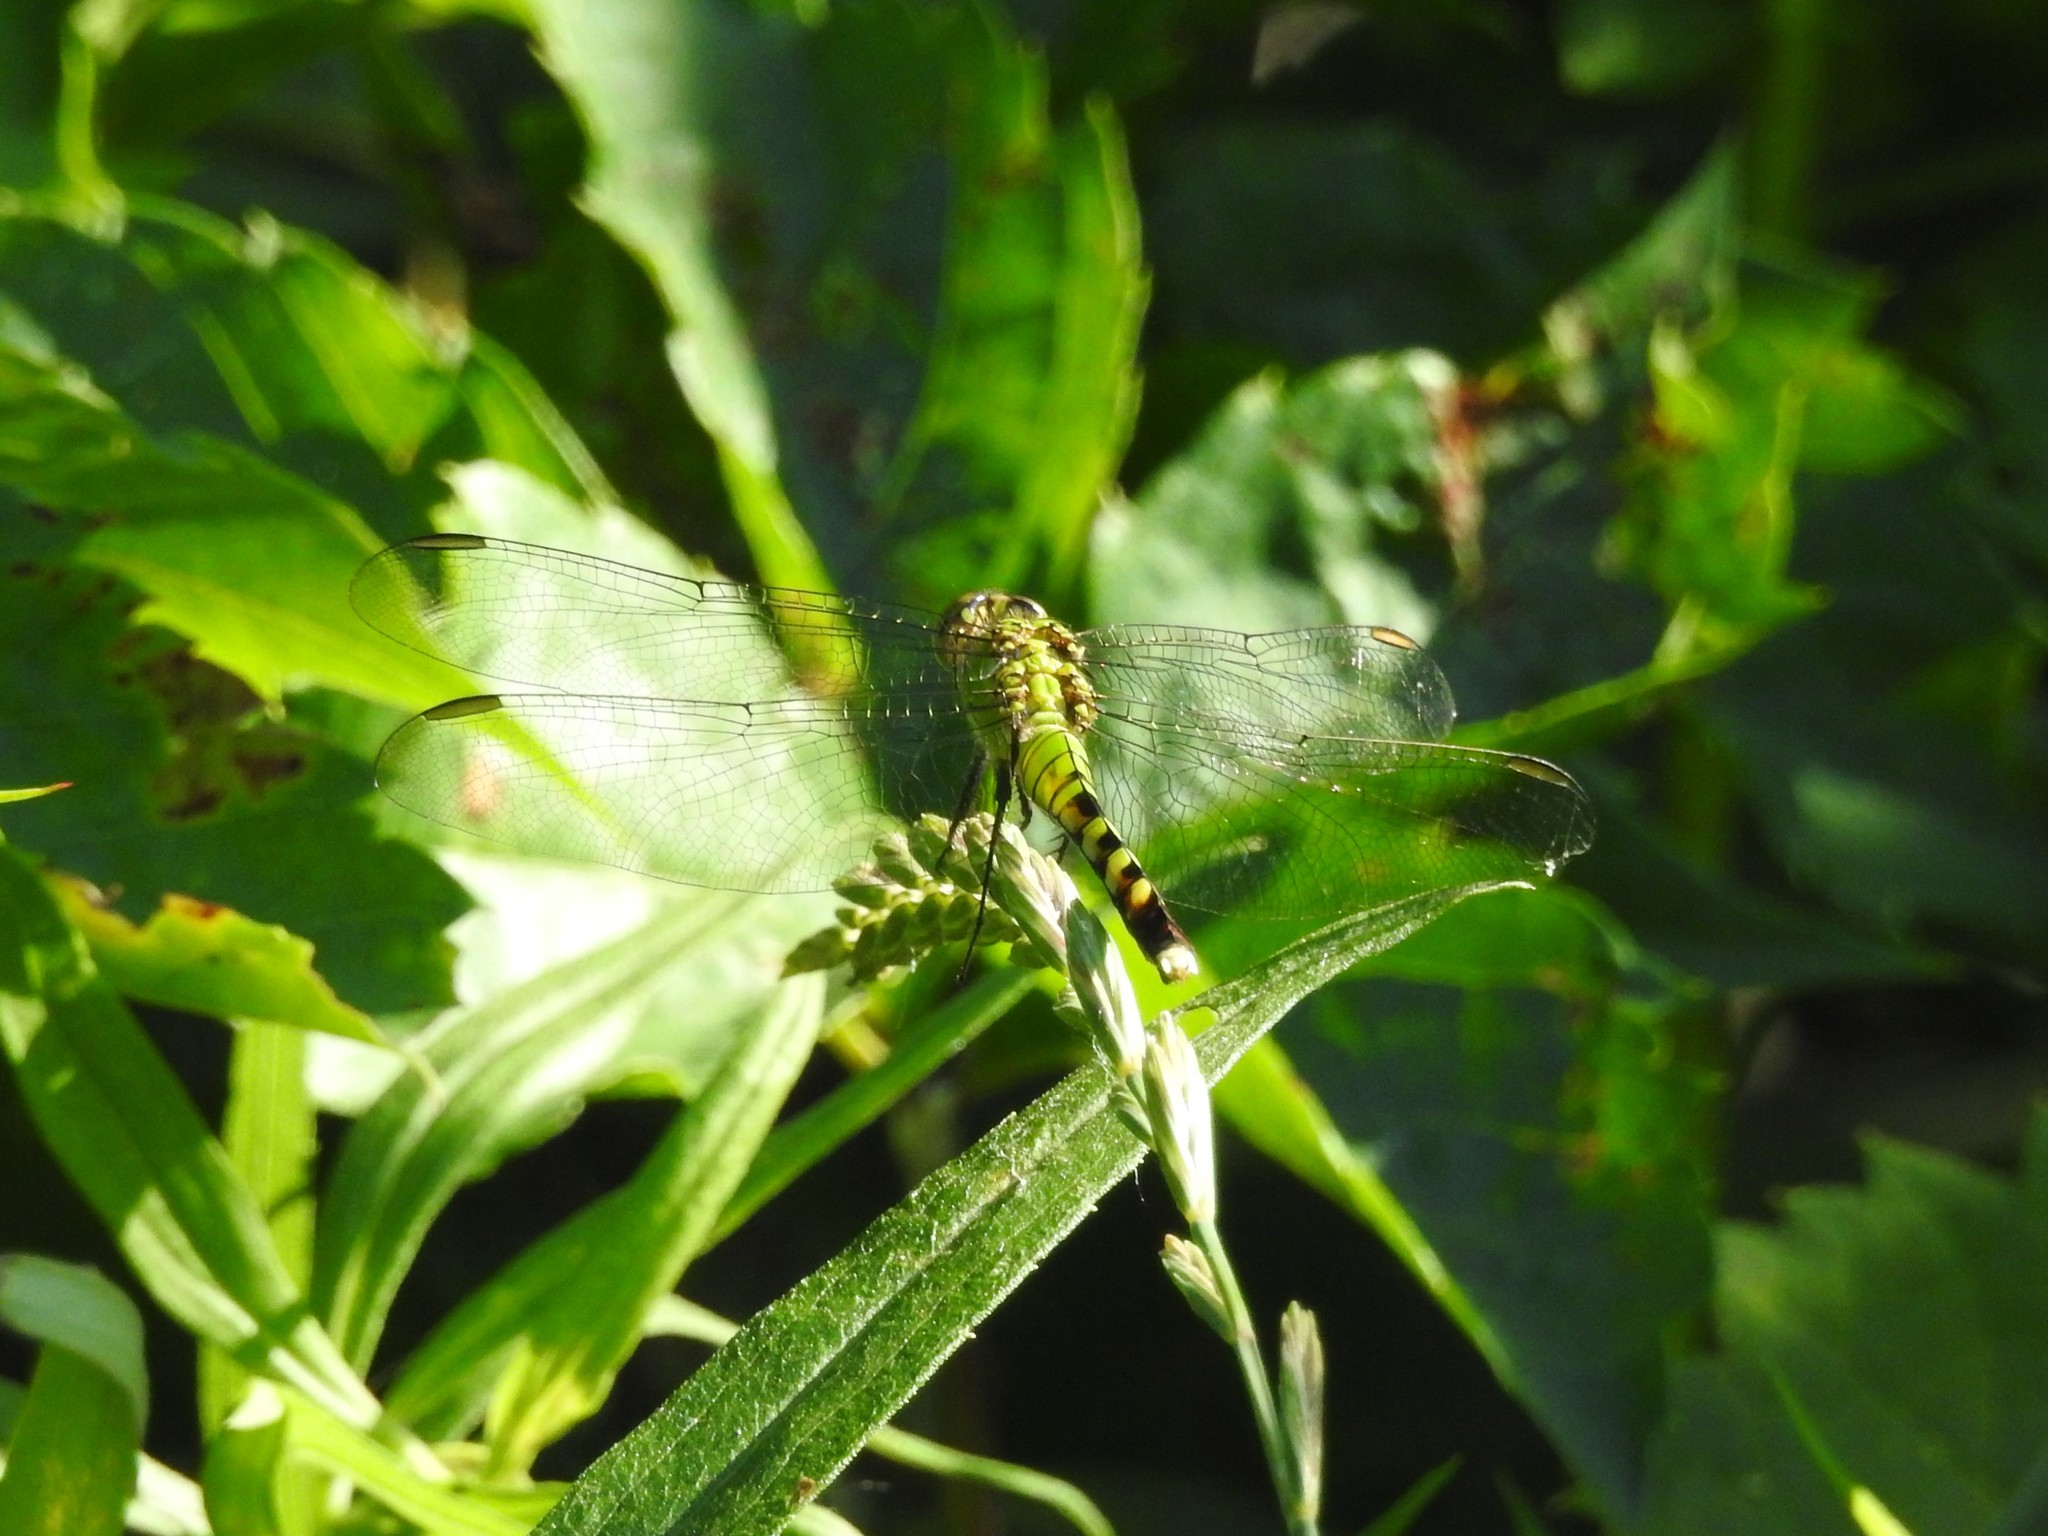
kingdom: Animalia
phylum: Arthropoda
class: Insecta
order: Odonata
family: Libellulidae
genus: Erythemis
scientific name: Erythemis simplicicollis
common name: Eastern pondhawk
